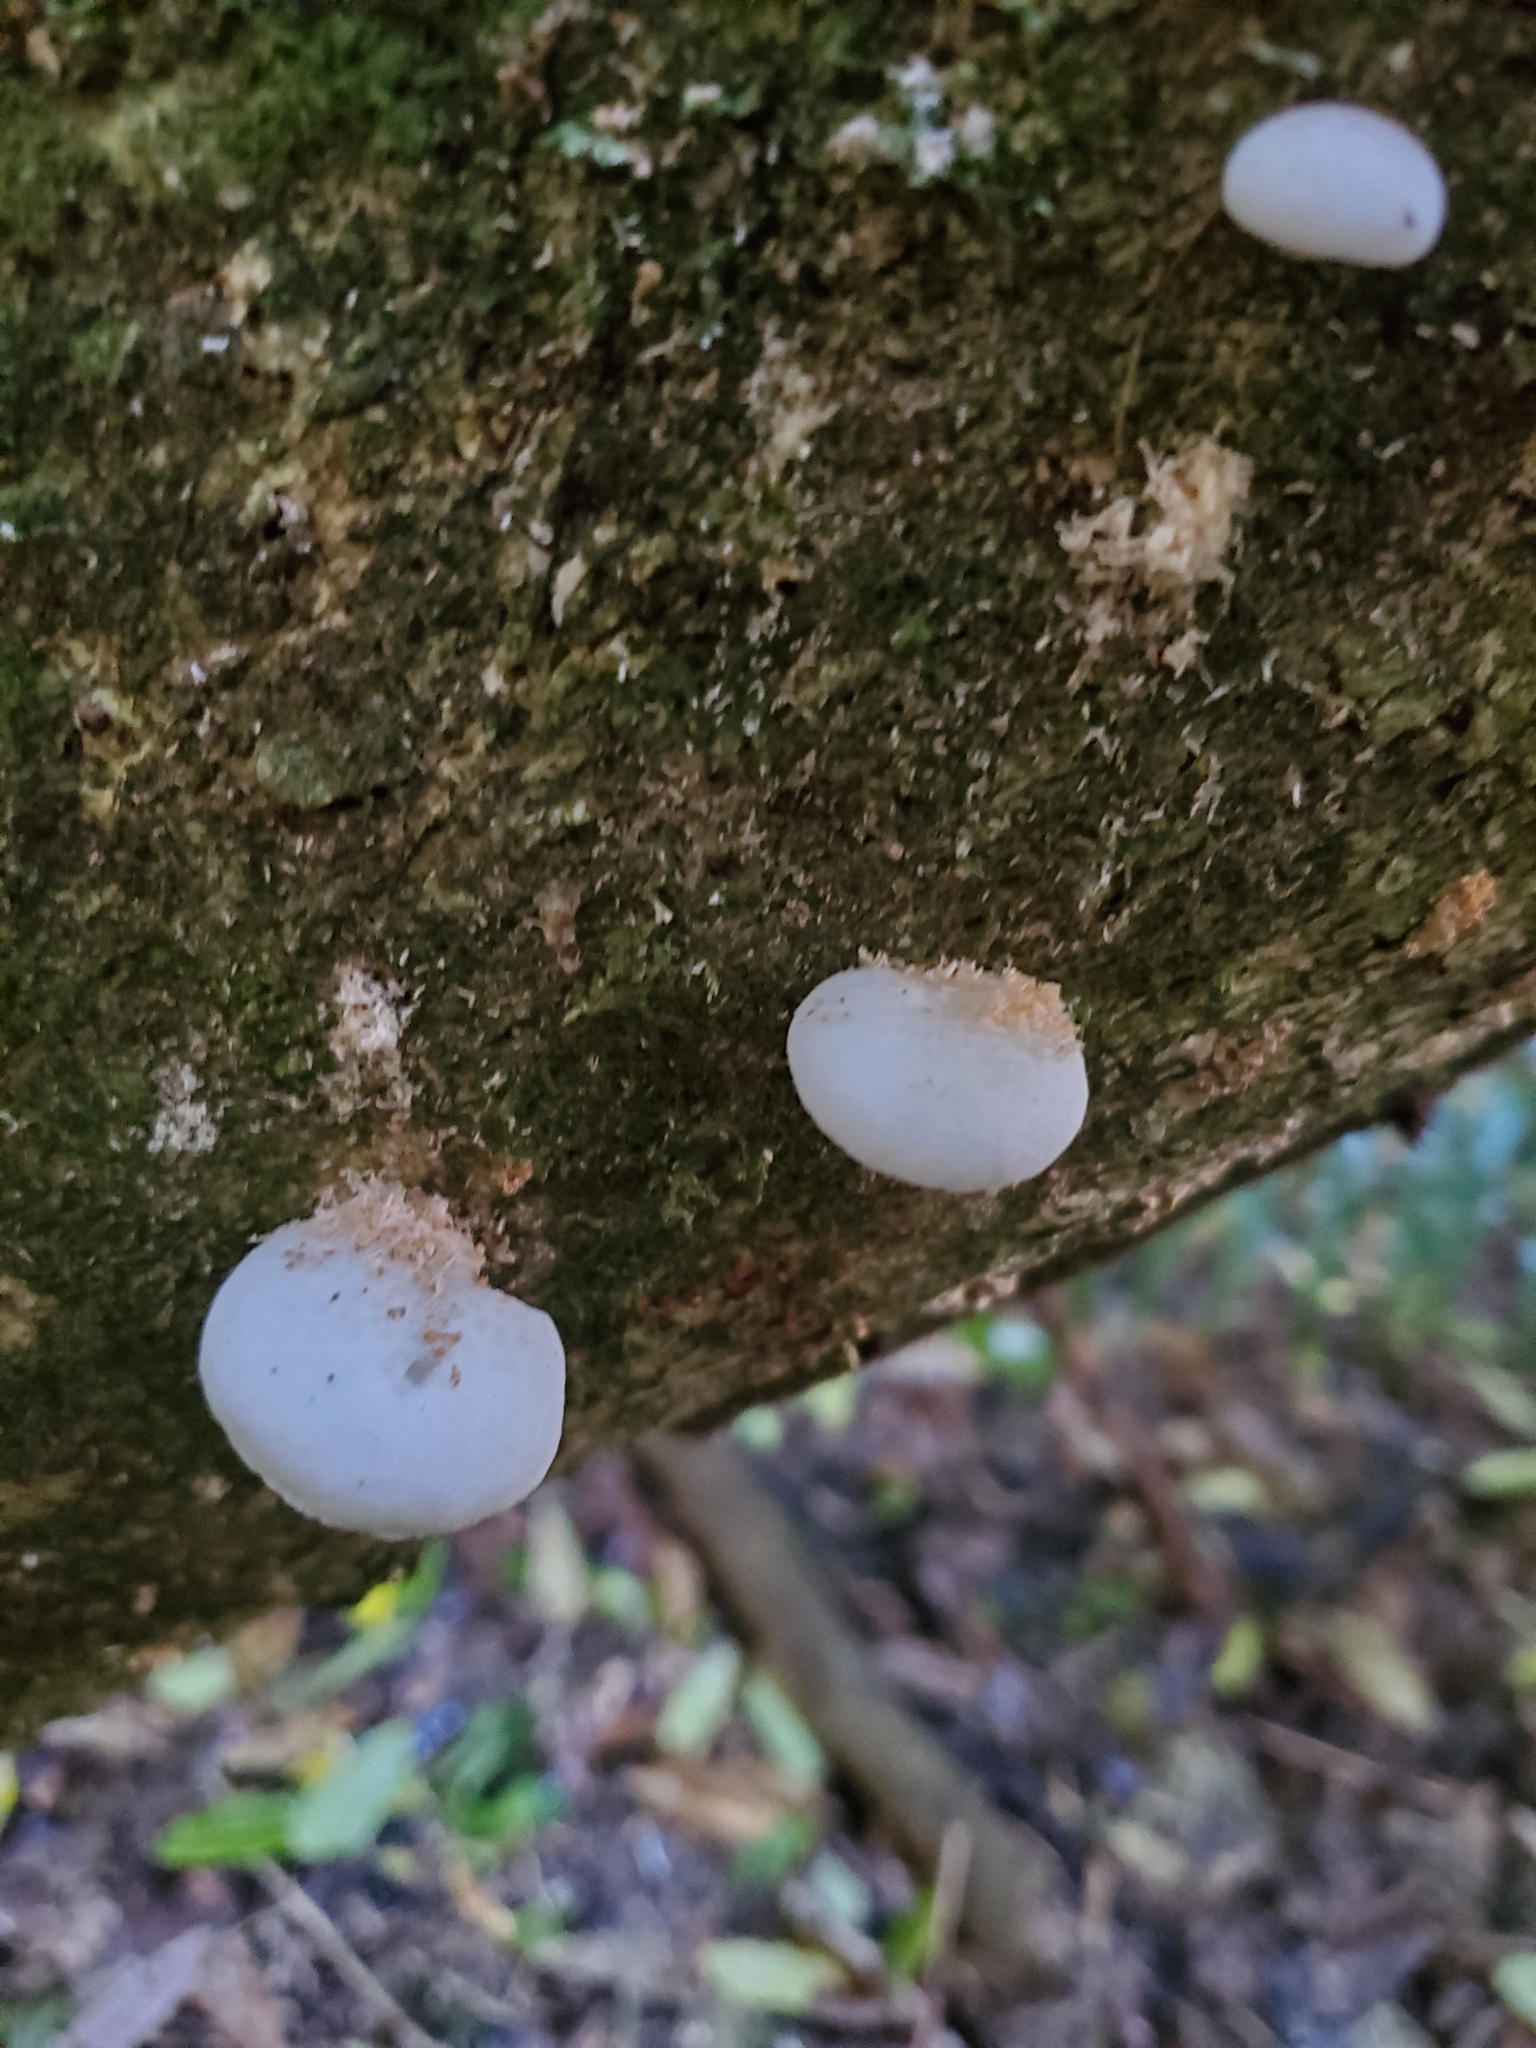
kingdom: Fungi
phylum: Basidiomycota
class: Agaricomycetes
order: Agaricales
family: Physalacriaceae
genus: Oudemansiella
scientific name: Oudemansiella australis
